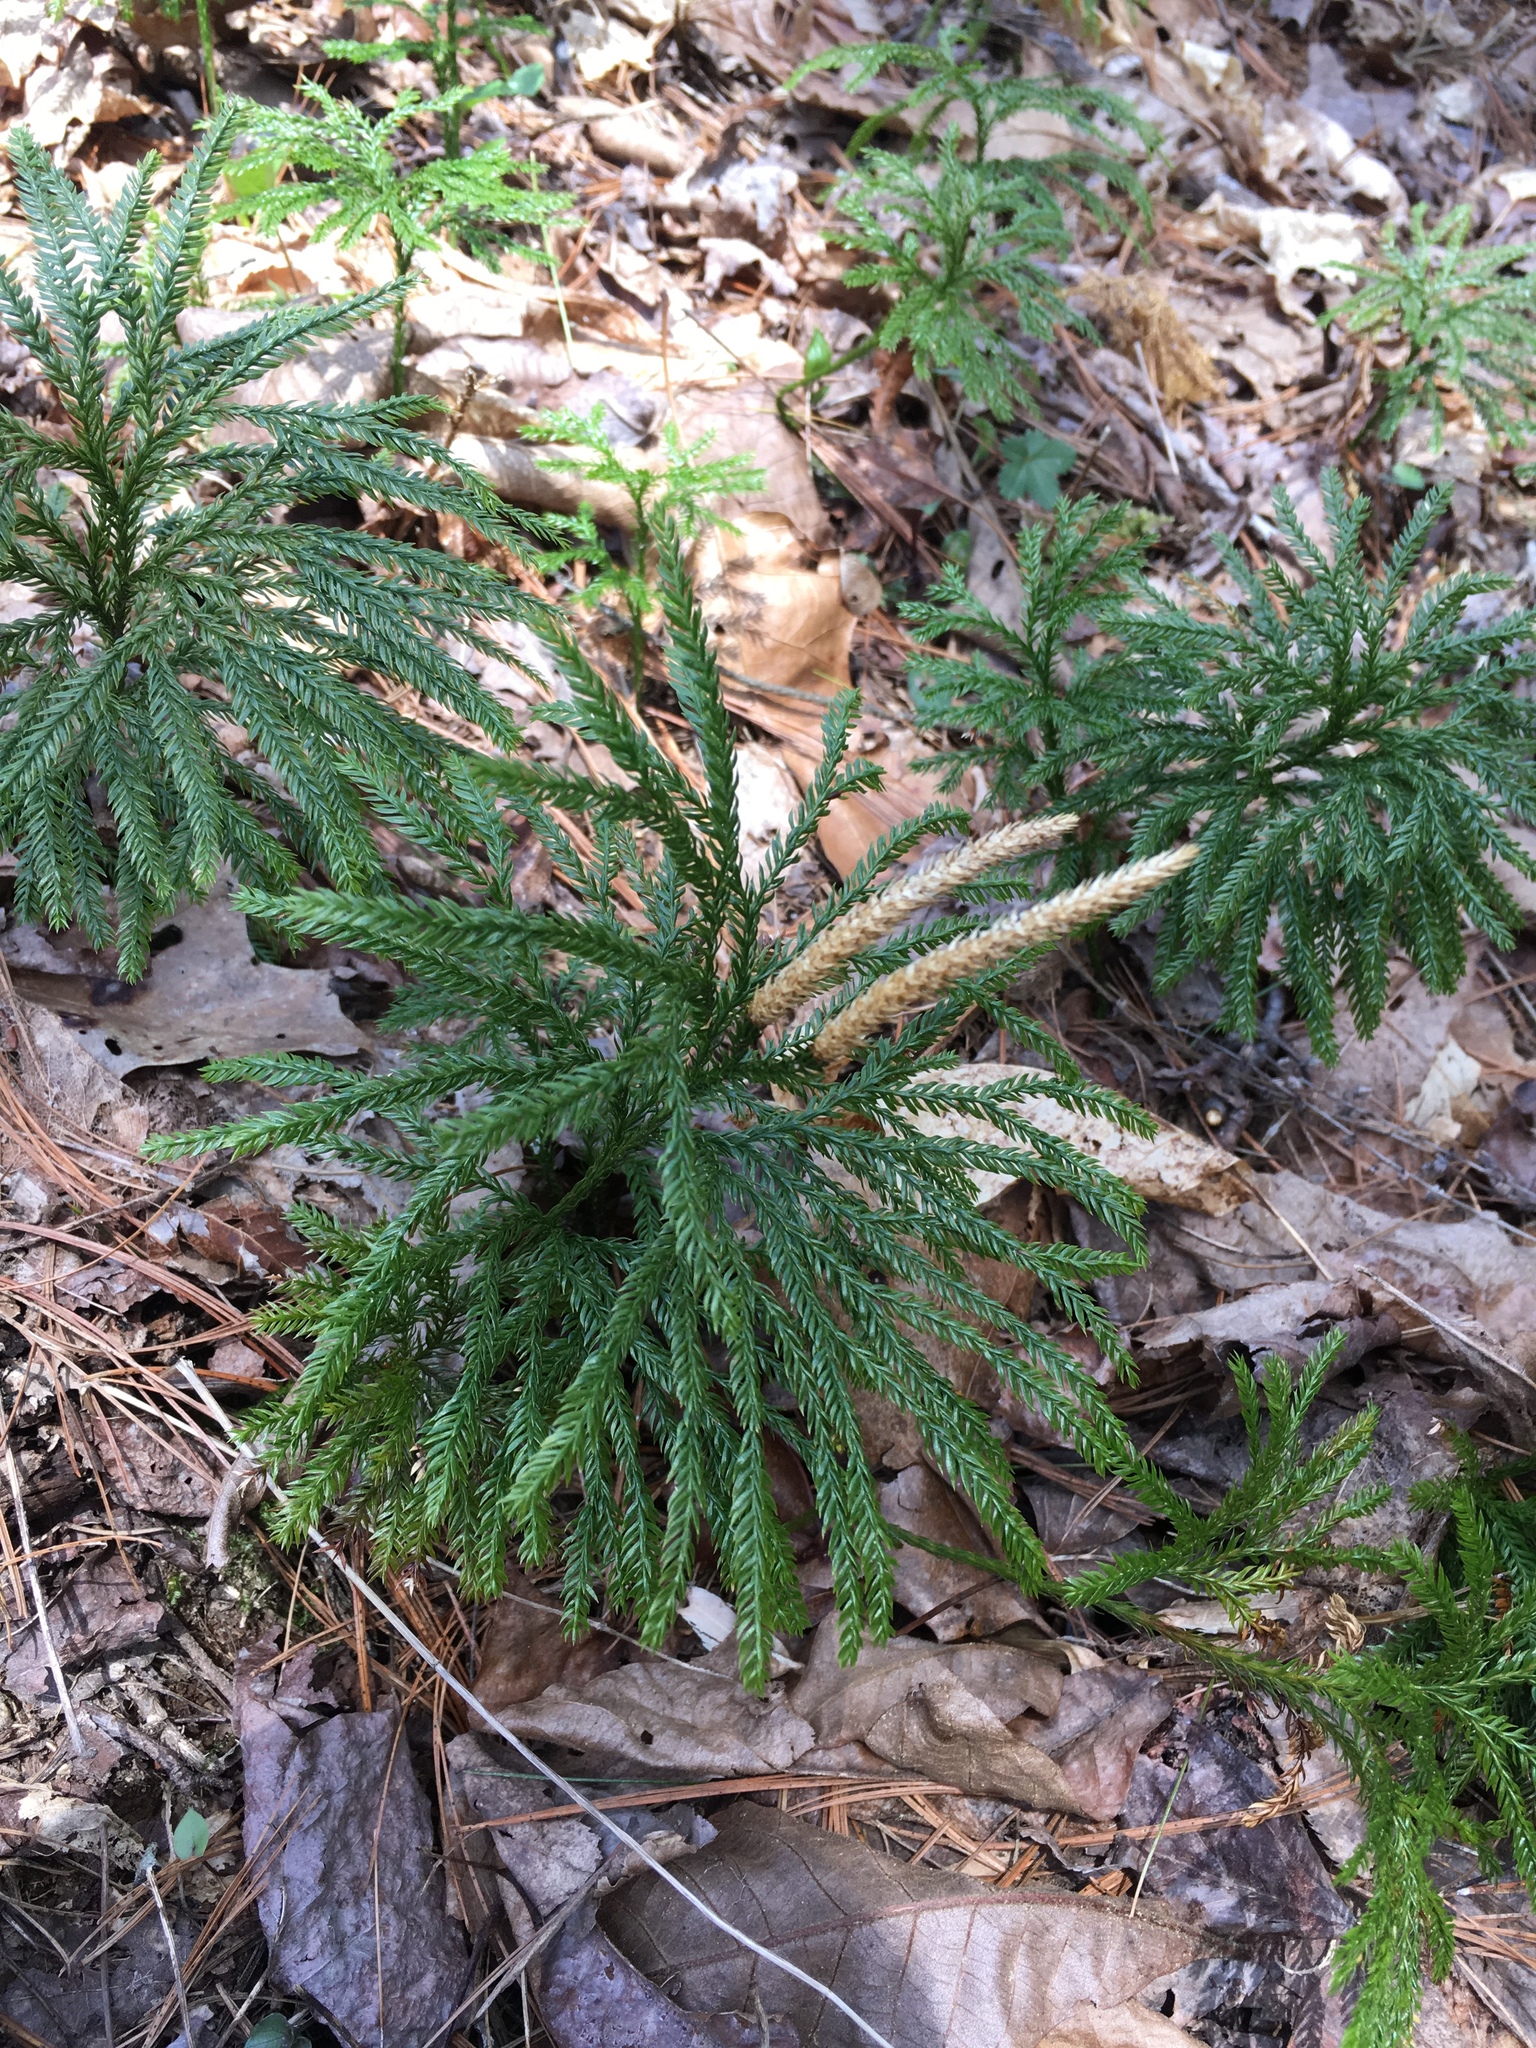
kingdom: Plantae
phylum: Tracheophyta
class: Lycopodiopsida
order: Lycopodiales
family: Lycopodiaceae
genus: Dendrolycopodium
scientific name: Dendrolycopodium obscurum
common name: Common ground-pine
